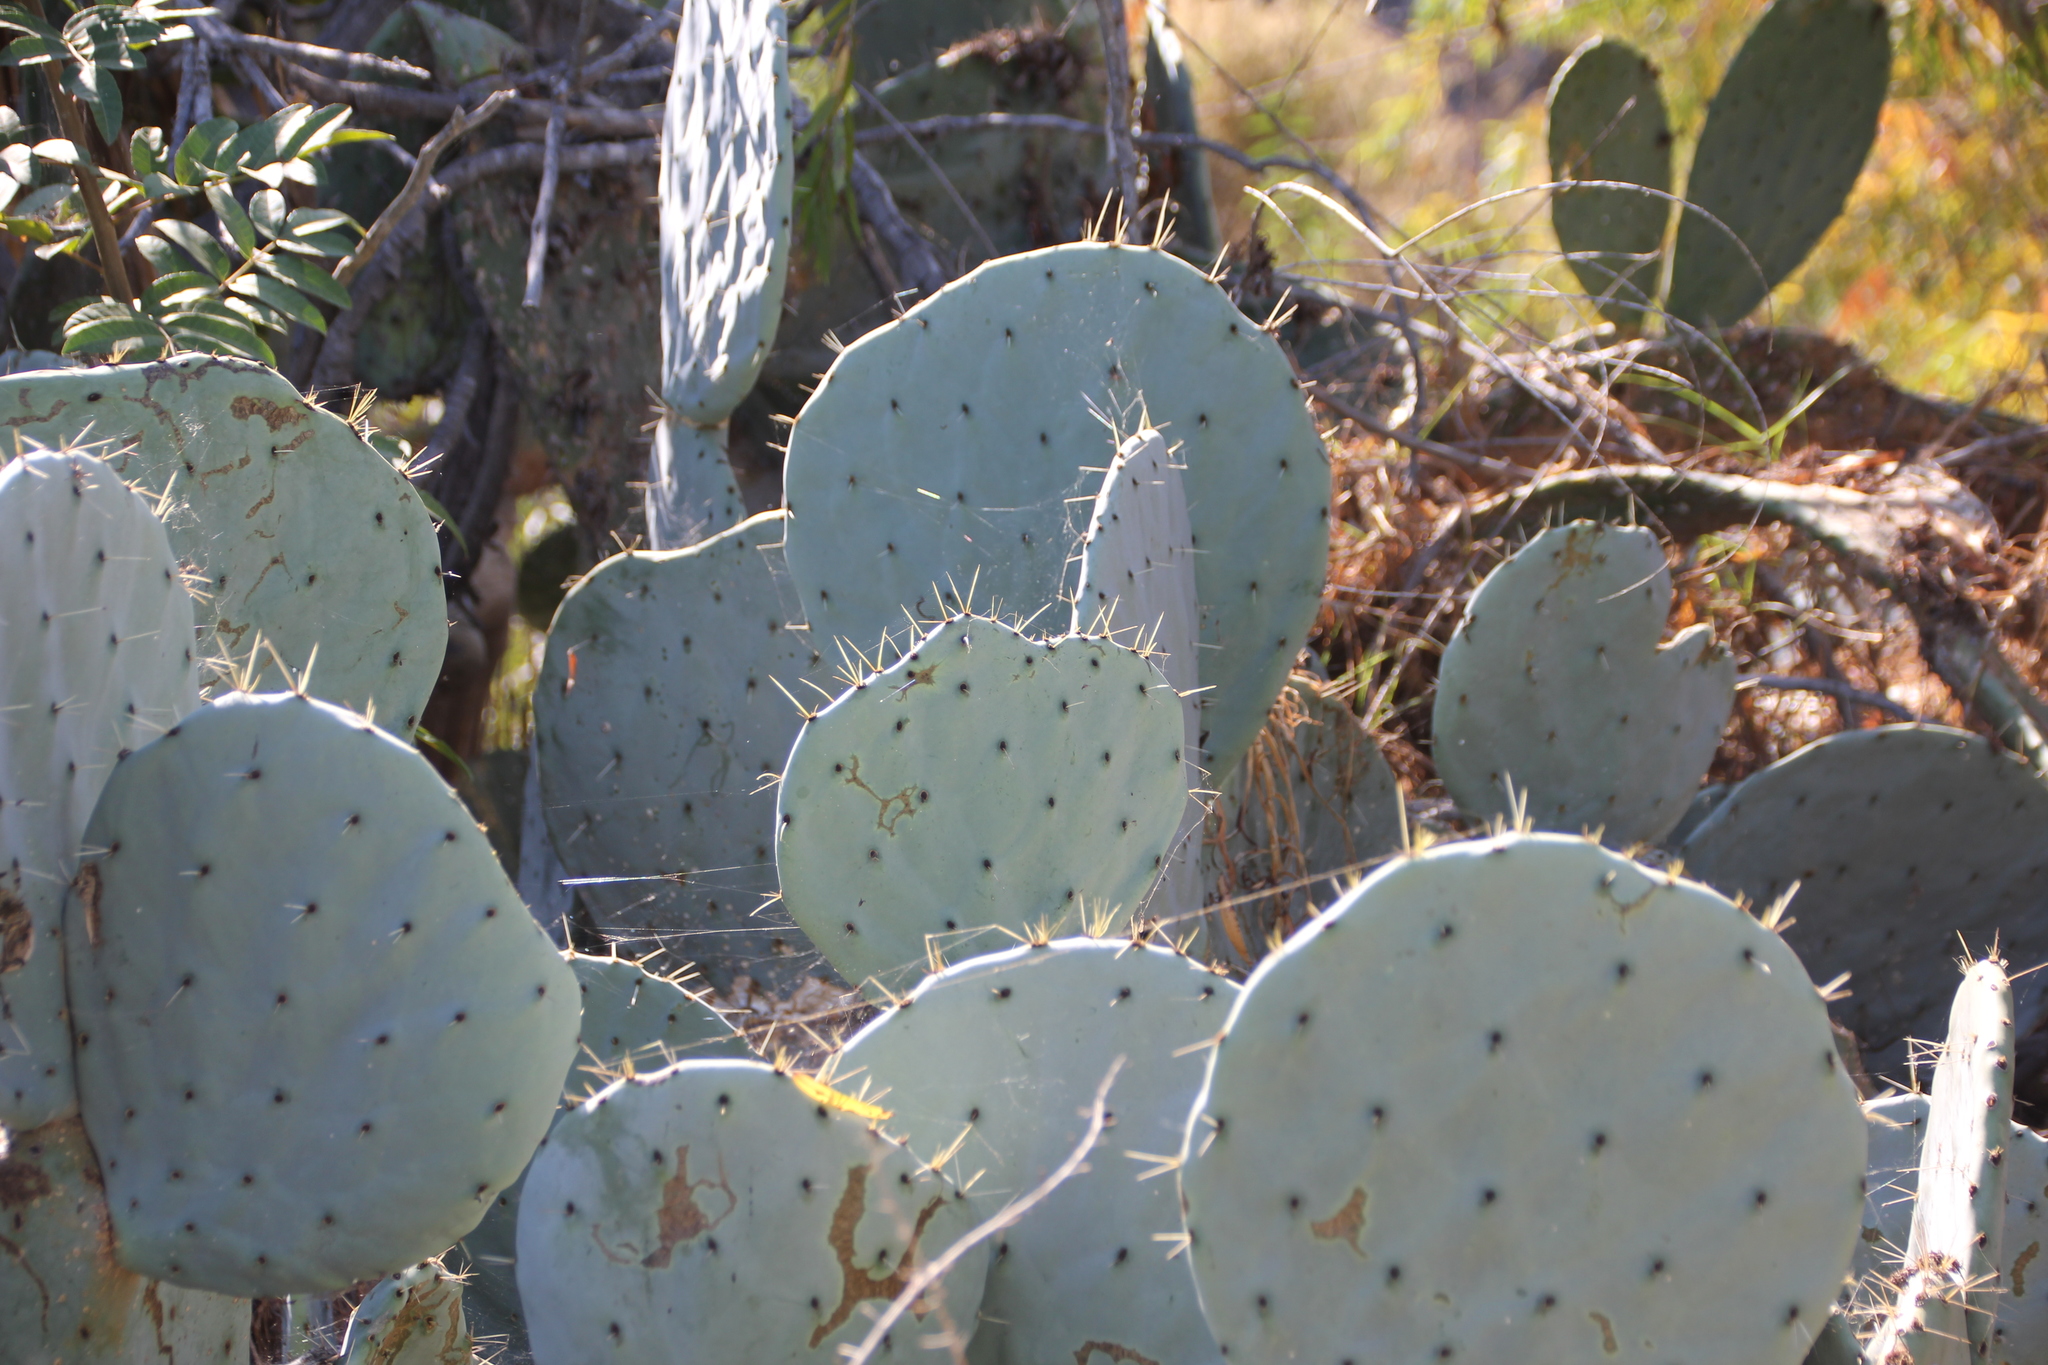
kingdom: Plantae
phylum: Tracheophyta
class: Magnoliopsida
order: Caryophyllales
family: Cactaceae
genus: Opuntia
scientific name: Opuntia robusta
